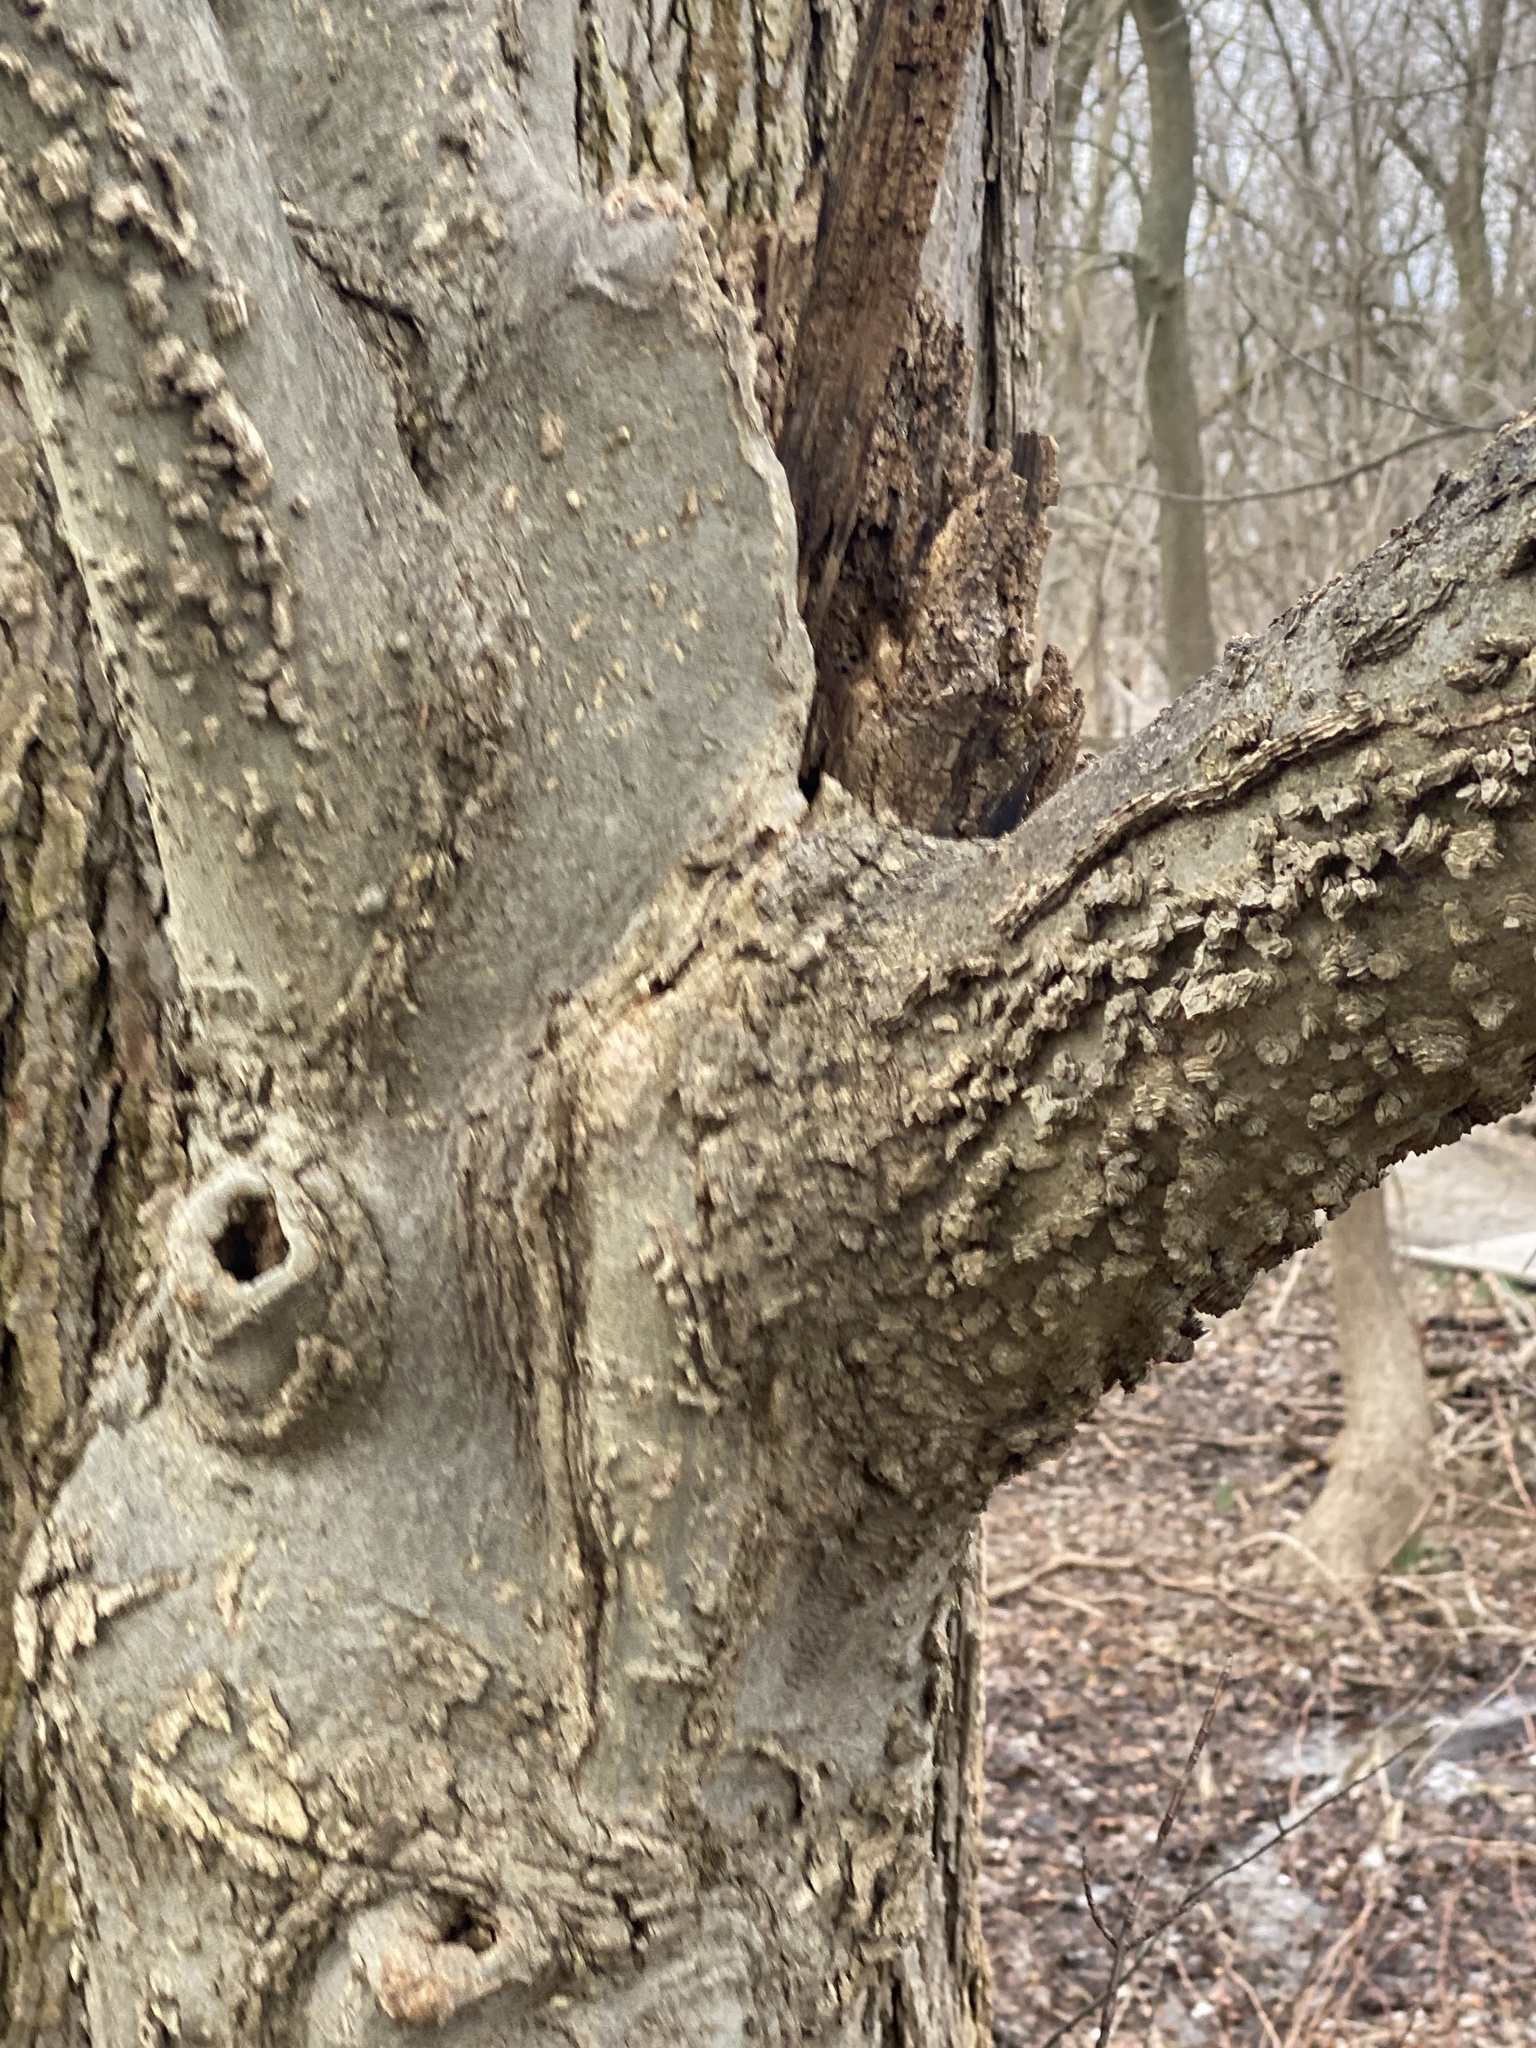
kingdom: Plantae
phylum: Tracheophyta
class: Magnoliopsida
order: Rosales
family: Cannabaceae
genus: Celtis
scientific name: Celtis occidentalis
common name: Common hackberry
